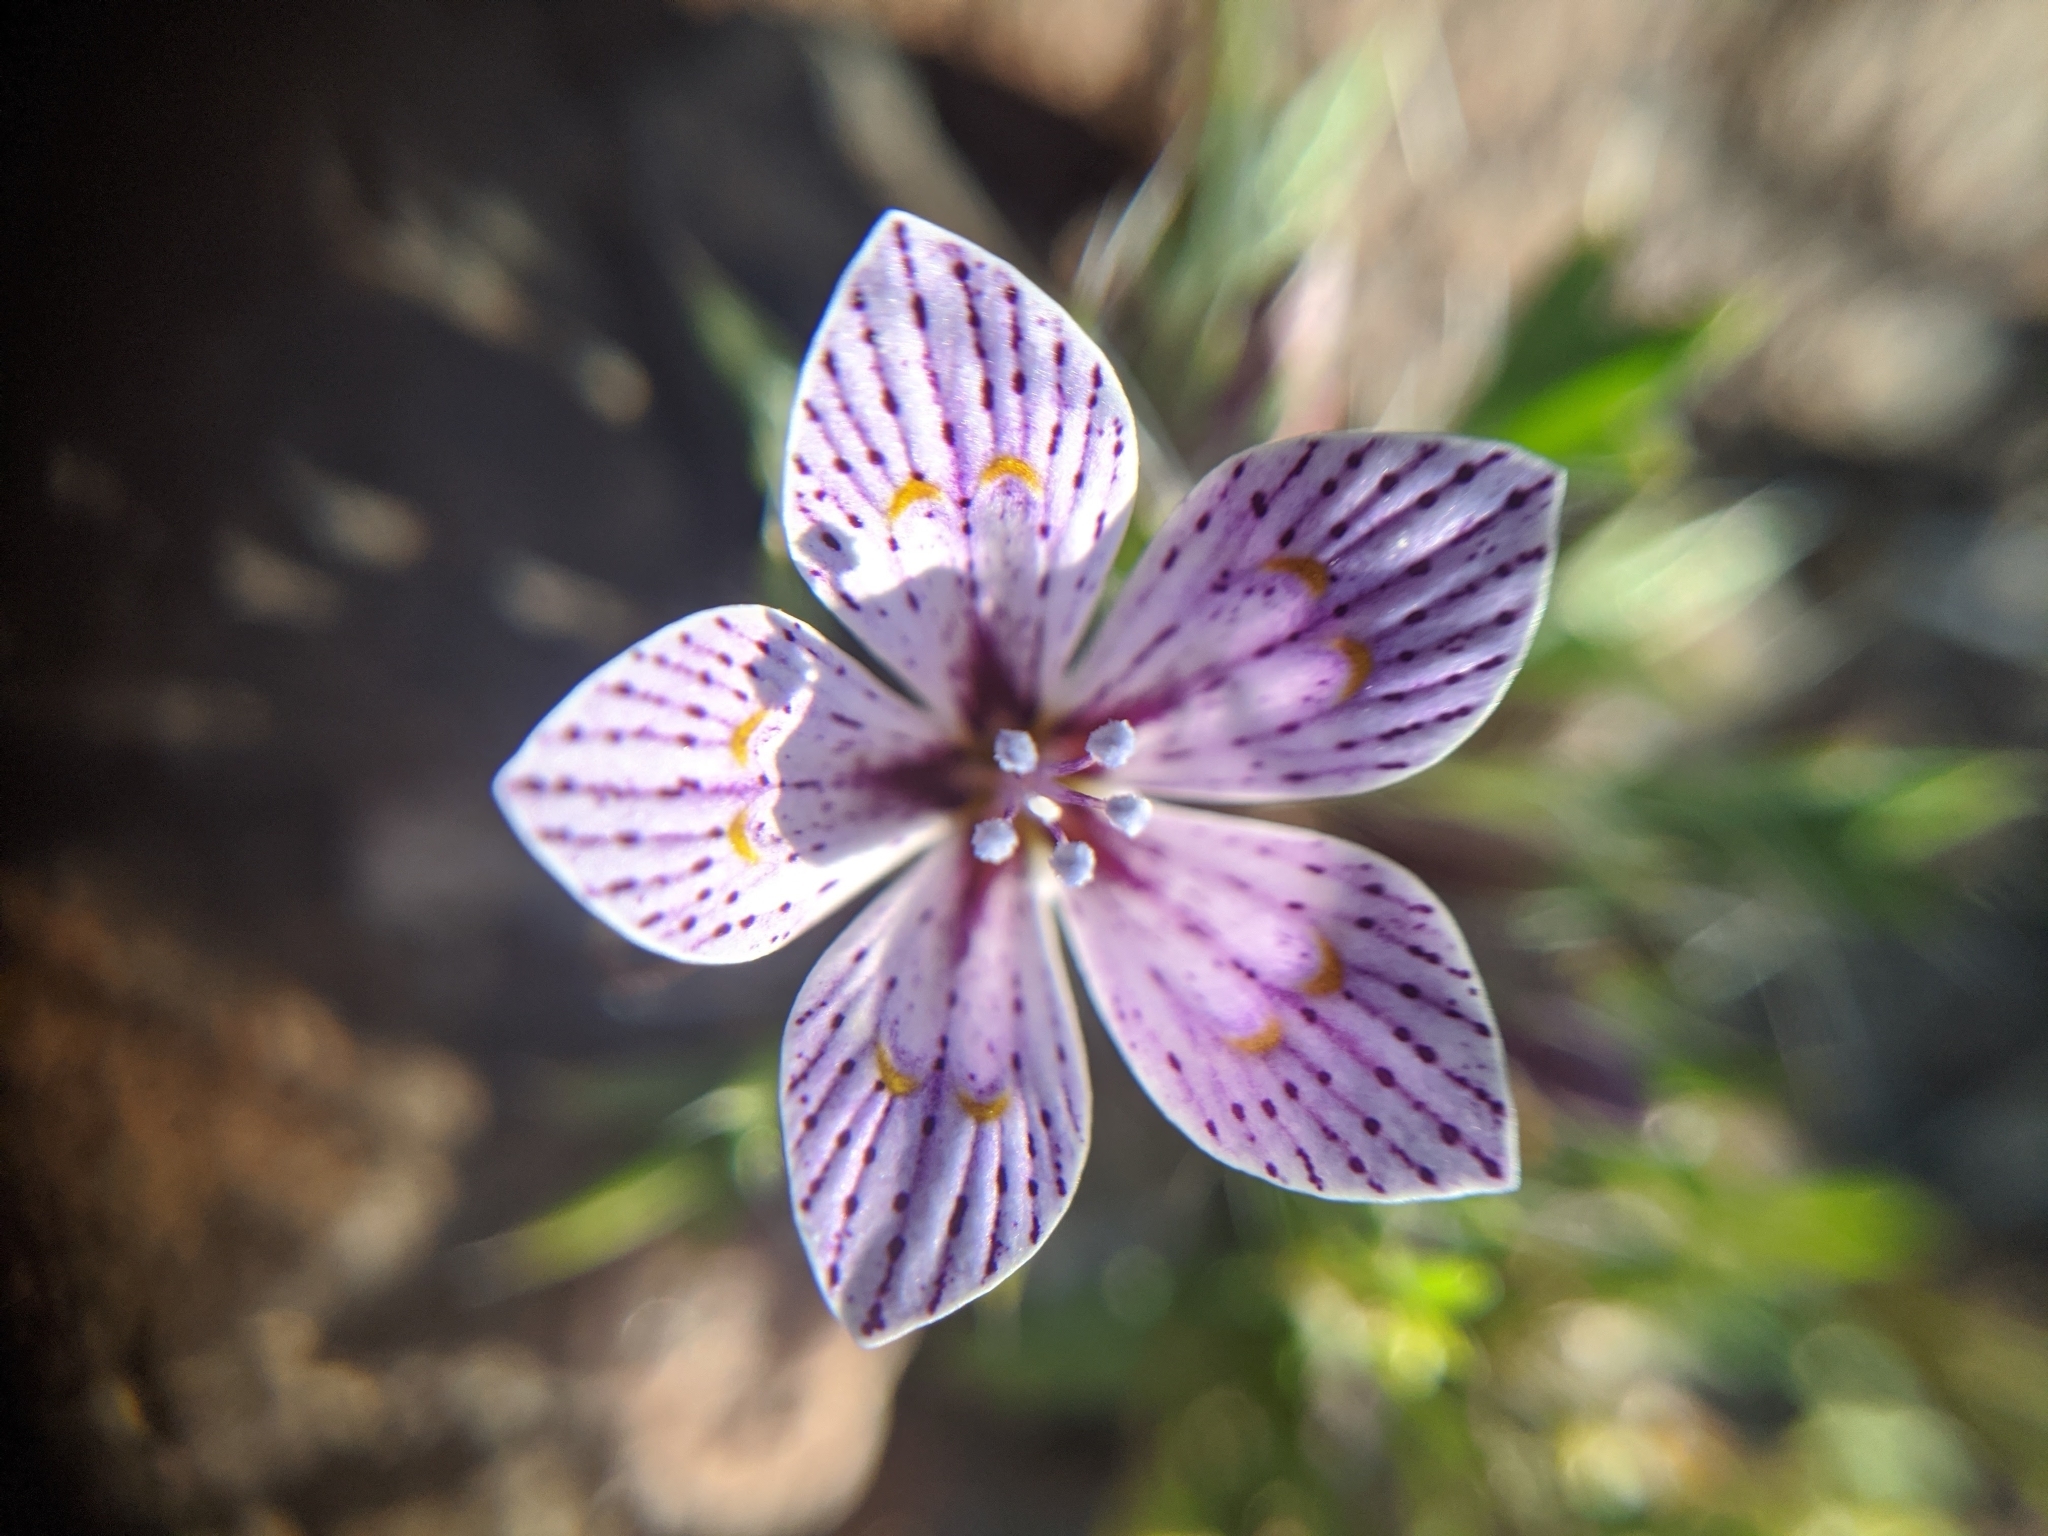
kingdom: Plantae
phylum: Tracheophyta
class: Magnoliopsida
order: Ericales
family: Polemoniaceae
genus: Langloisia
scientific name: Langloisia setosissima
